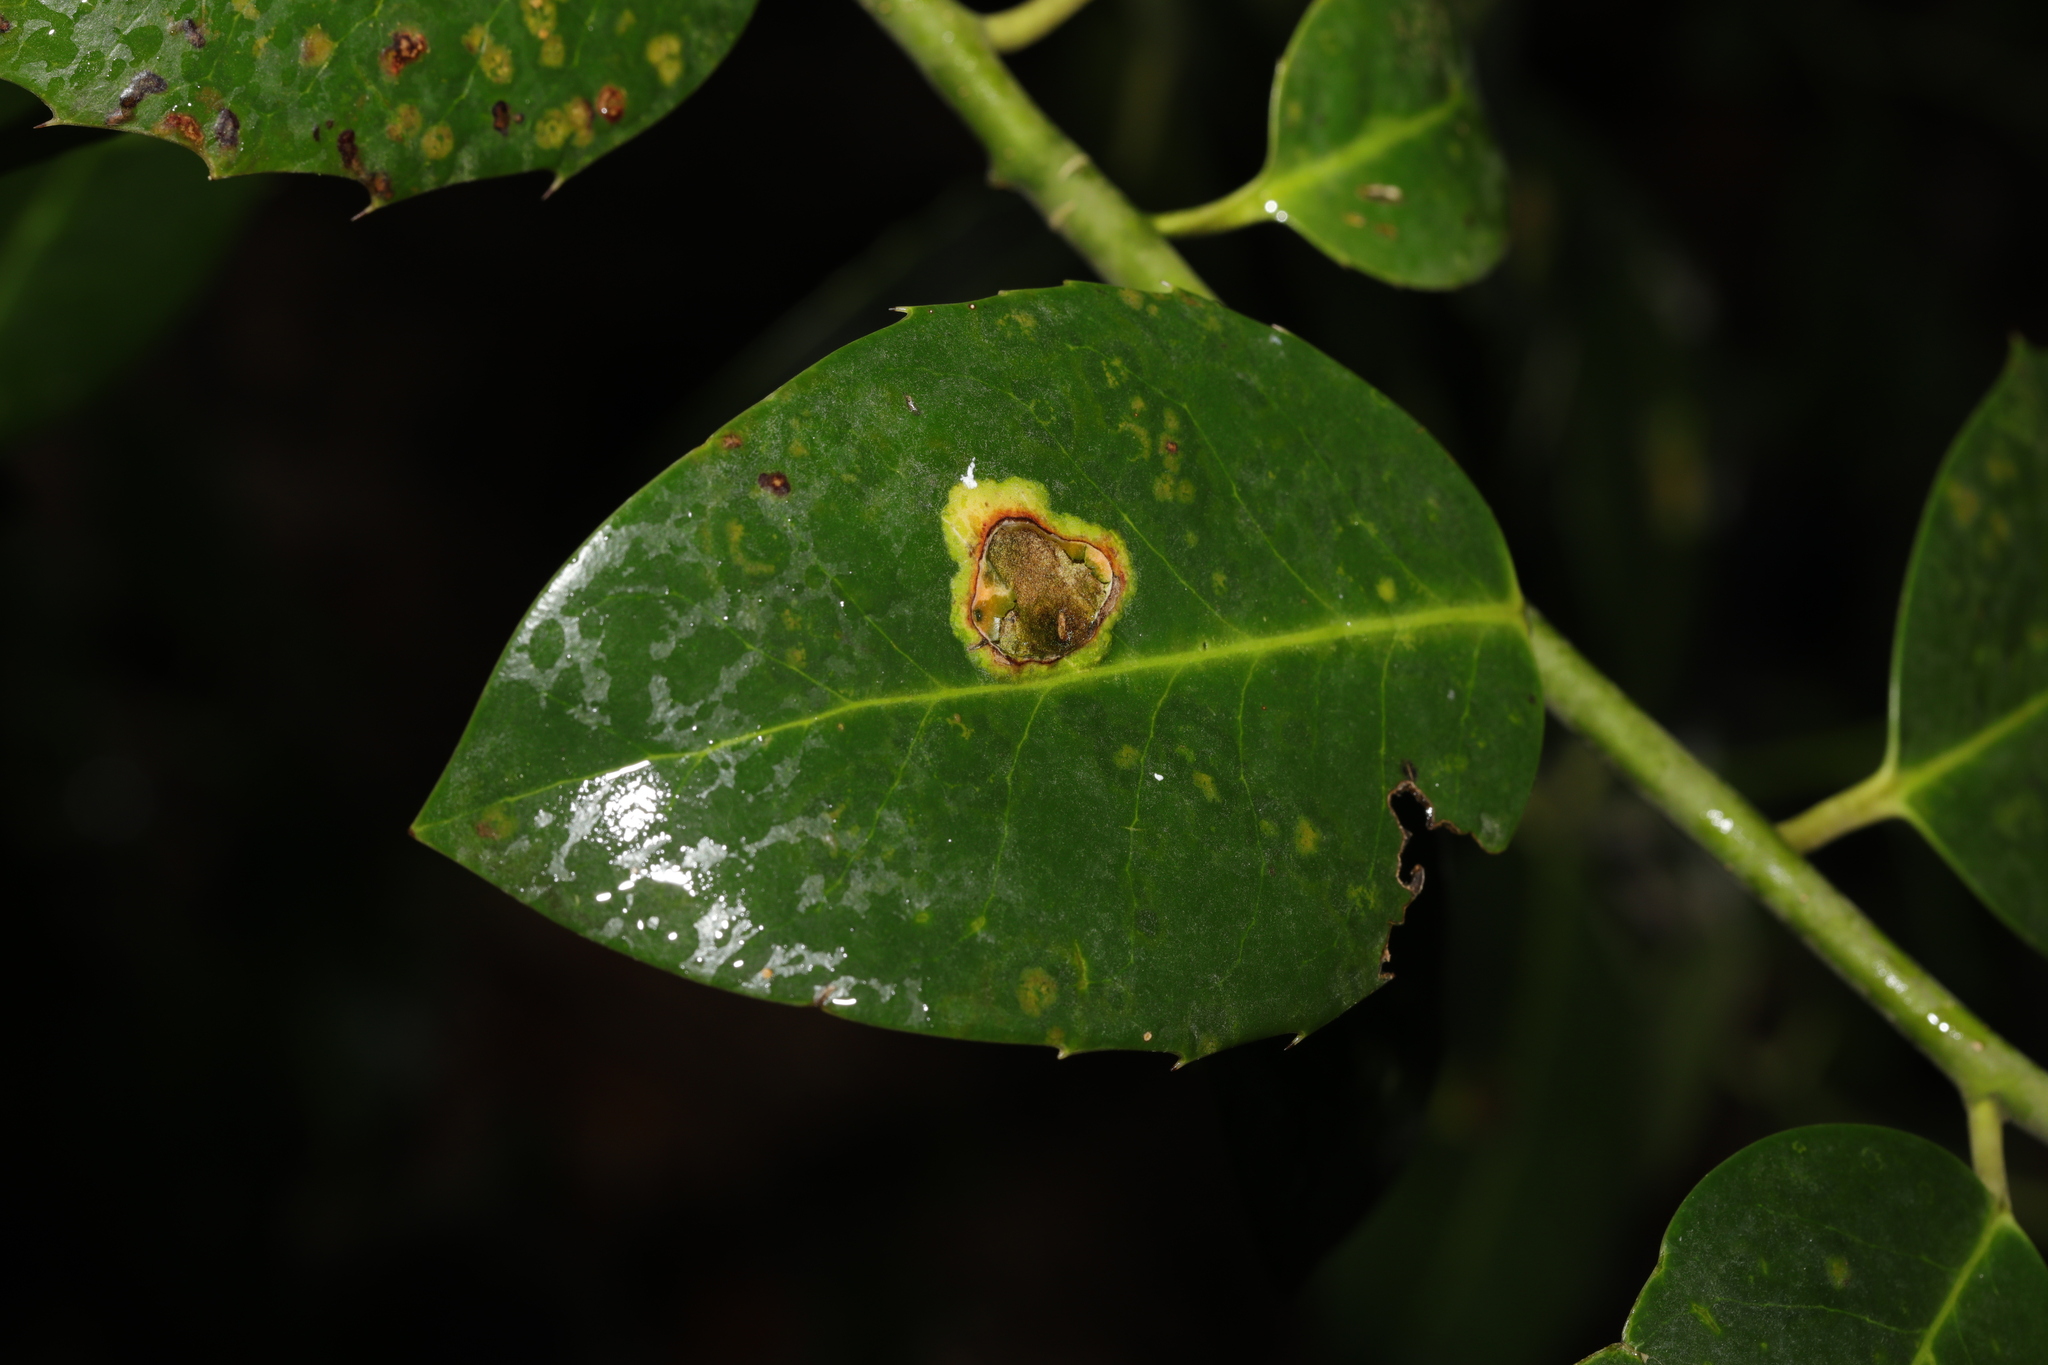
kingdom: Animalia
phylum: Arthropoda
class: Insecta
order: Diptera
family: Agromyzidae
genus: Phytomyza
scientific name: Phytomyza ilicis
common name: Holly leafminer
